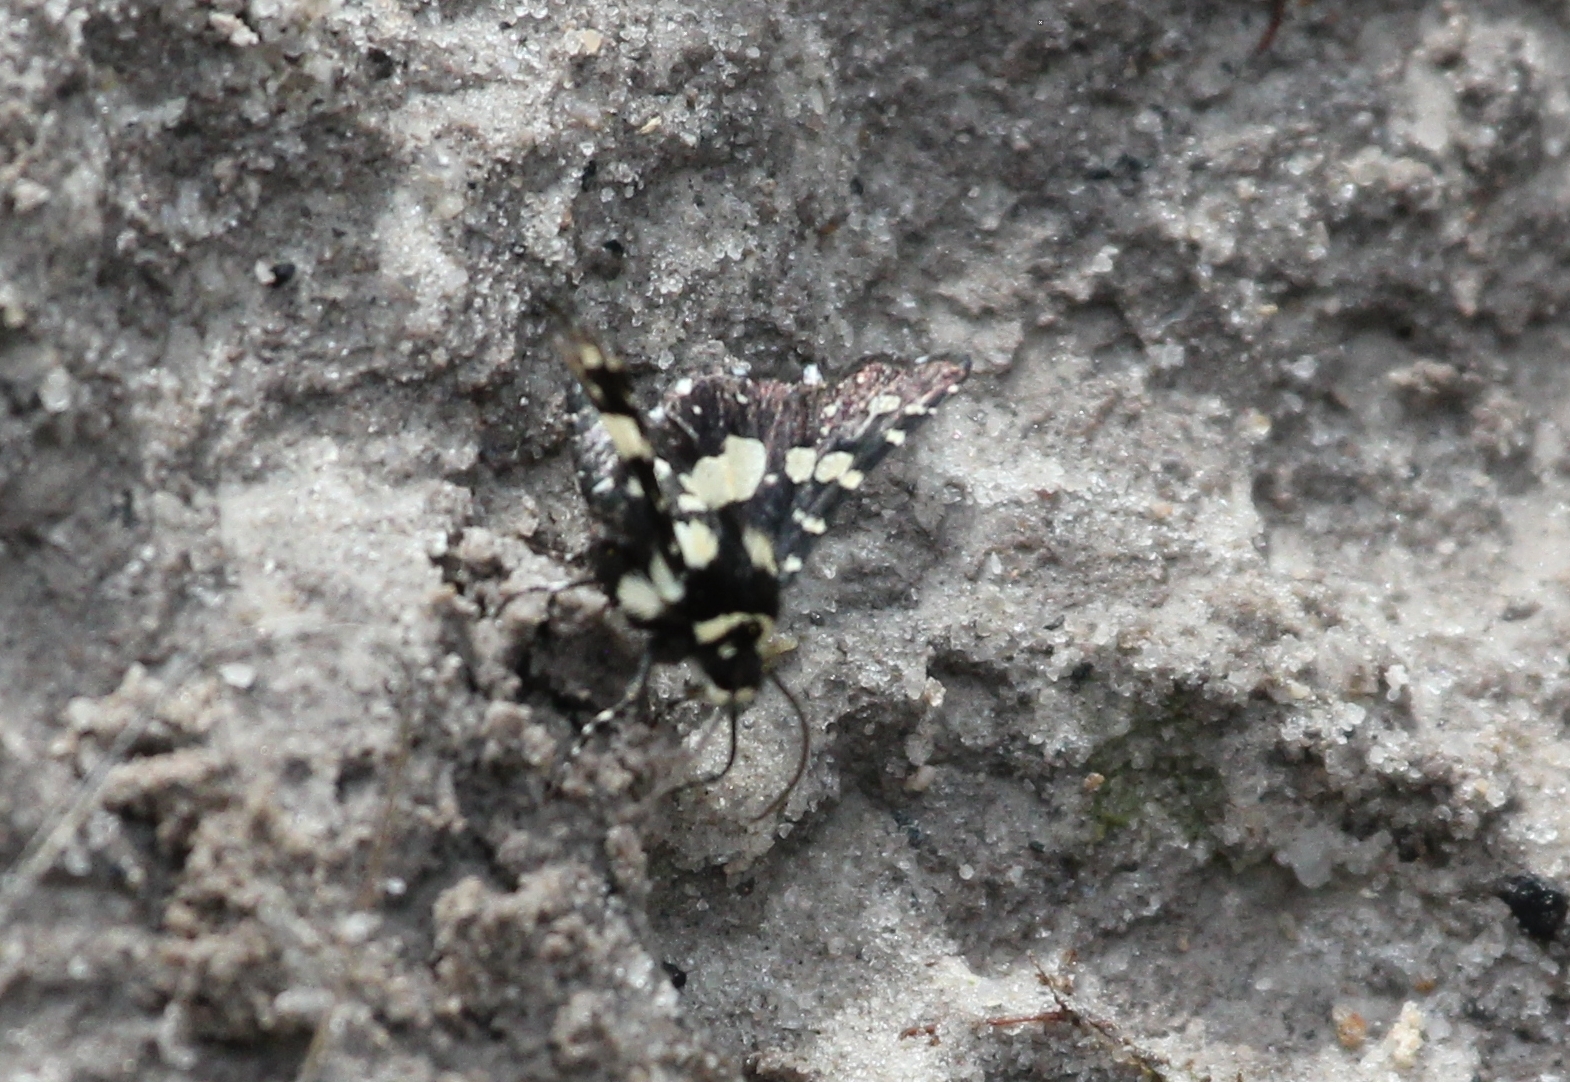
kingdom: Animalia
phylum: Arthropoda
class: Insecta
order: Lepidoptera
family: Thyrididae
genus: Pseudothyris
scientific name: Pseudothyris sepulchralis
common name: Mournful thyris moth
